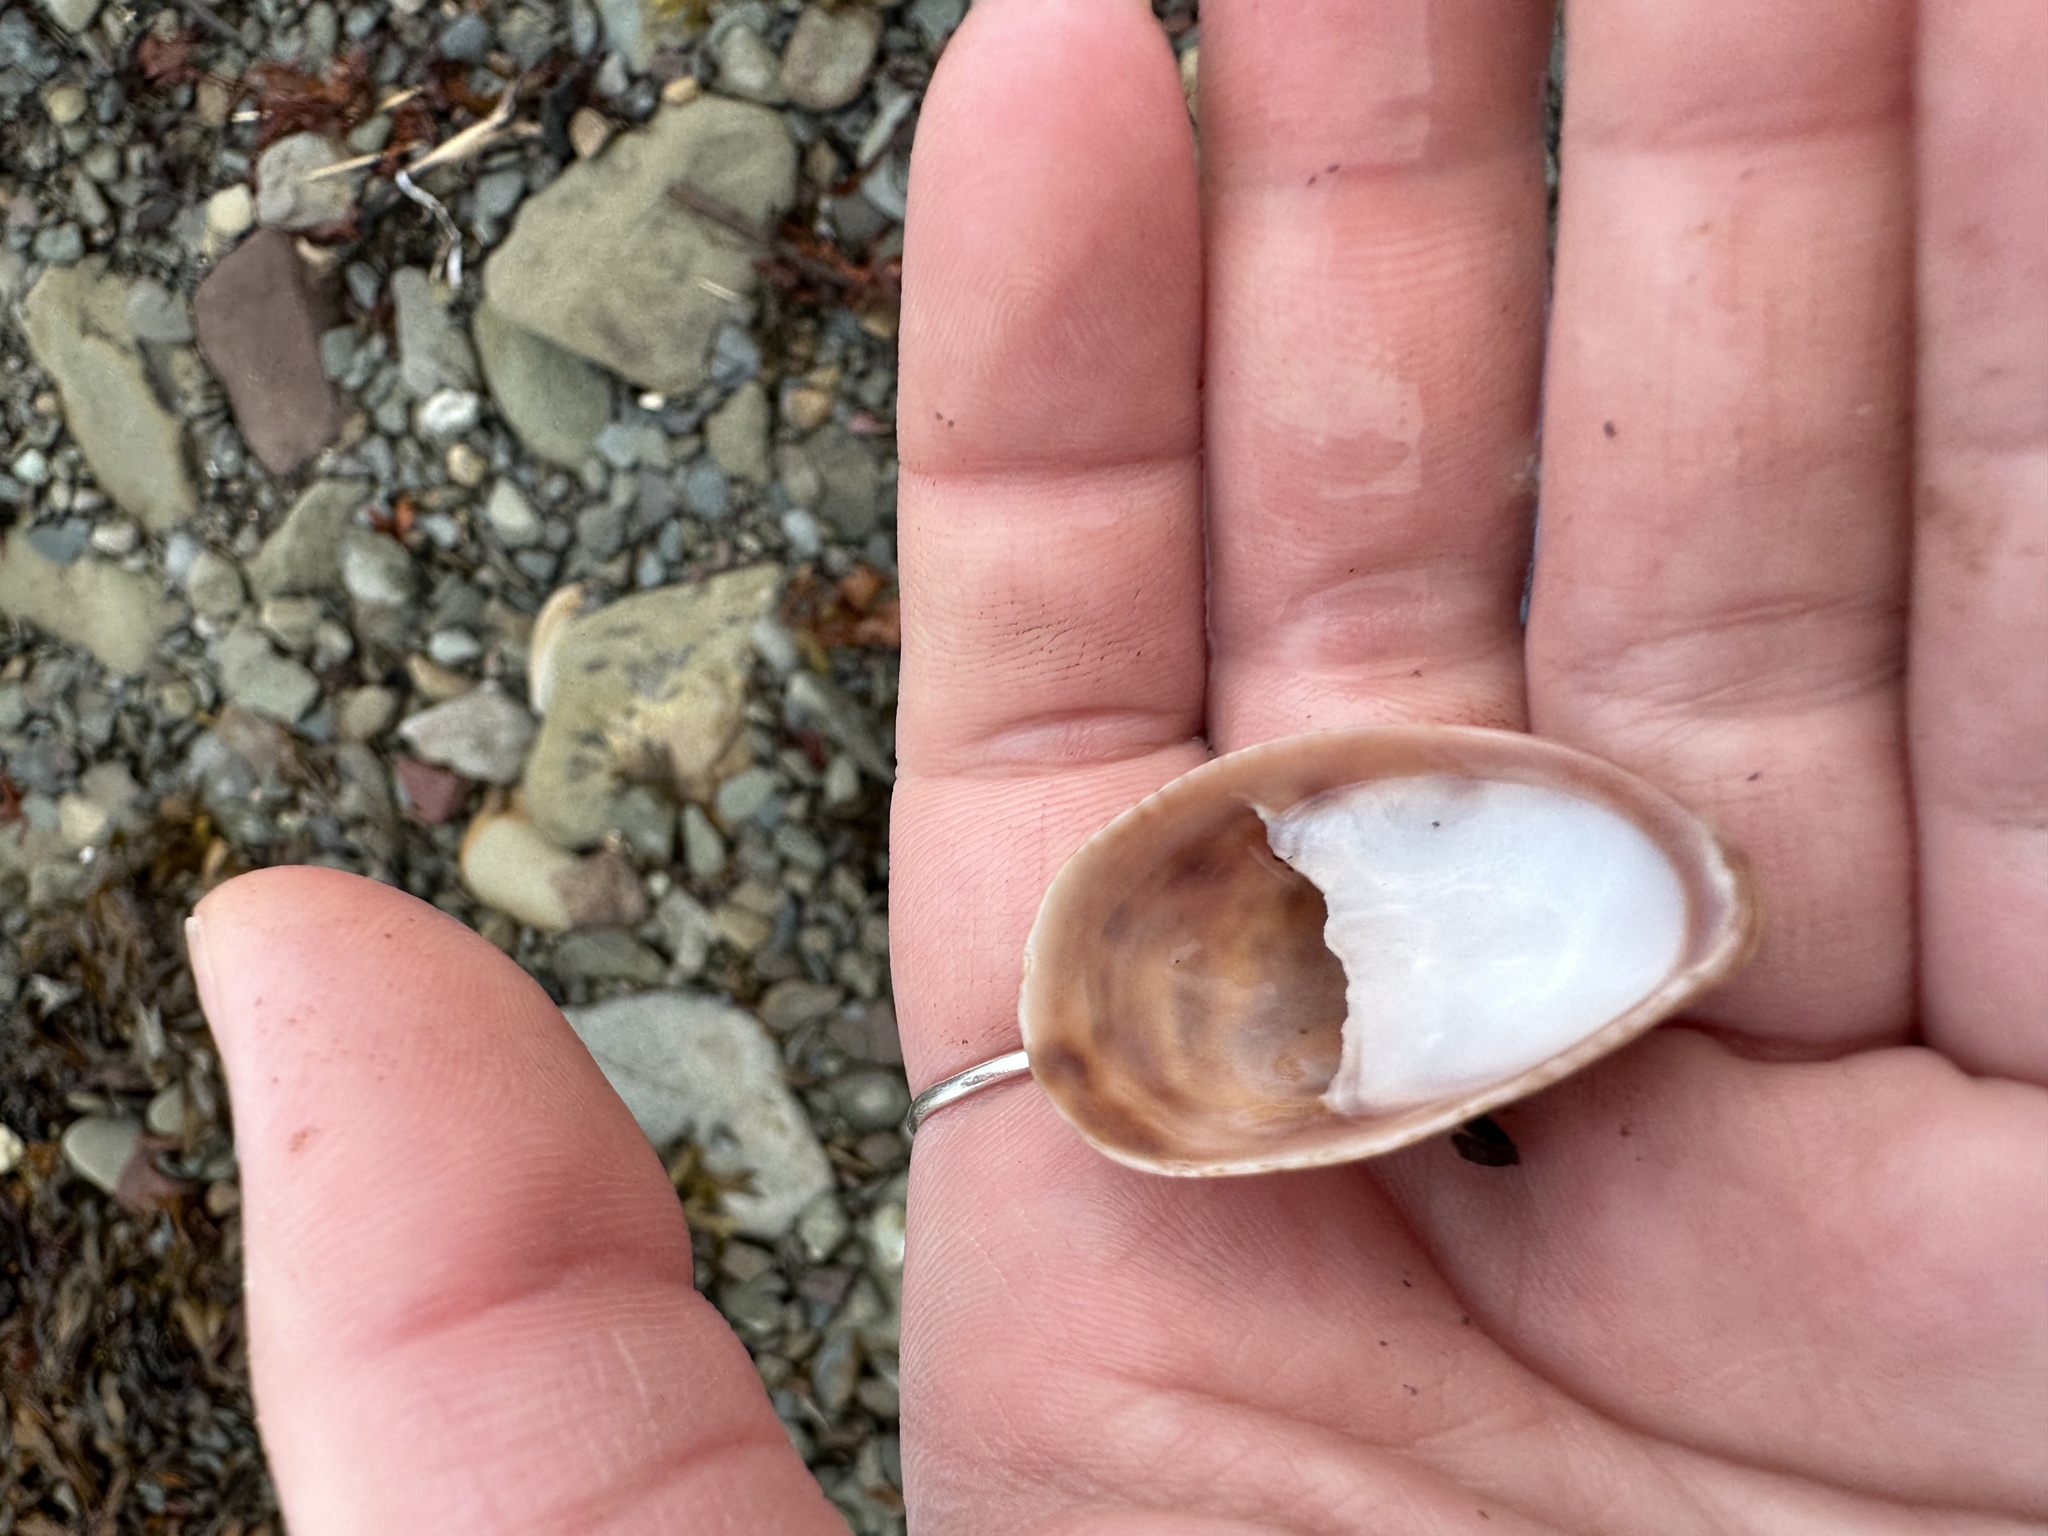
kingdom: Animalia
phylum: Mollusca
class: Gastropoda
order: Littorinimorpha
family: Calyptraeidae
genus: Crepidula
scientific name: Crepidula fornicata
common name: Slipper limpet
